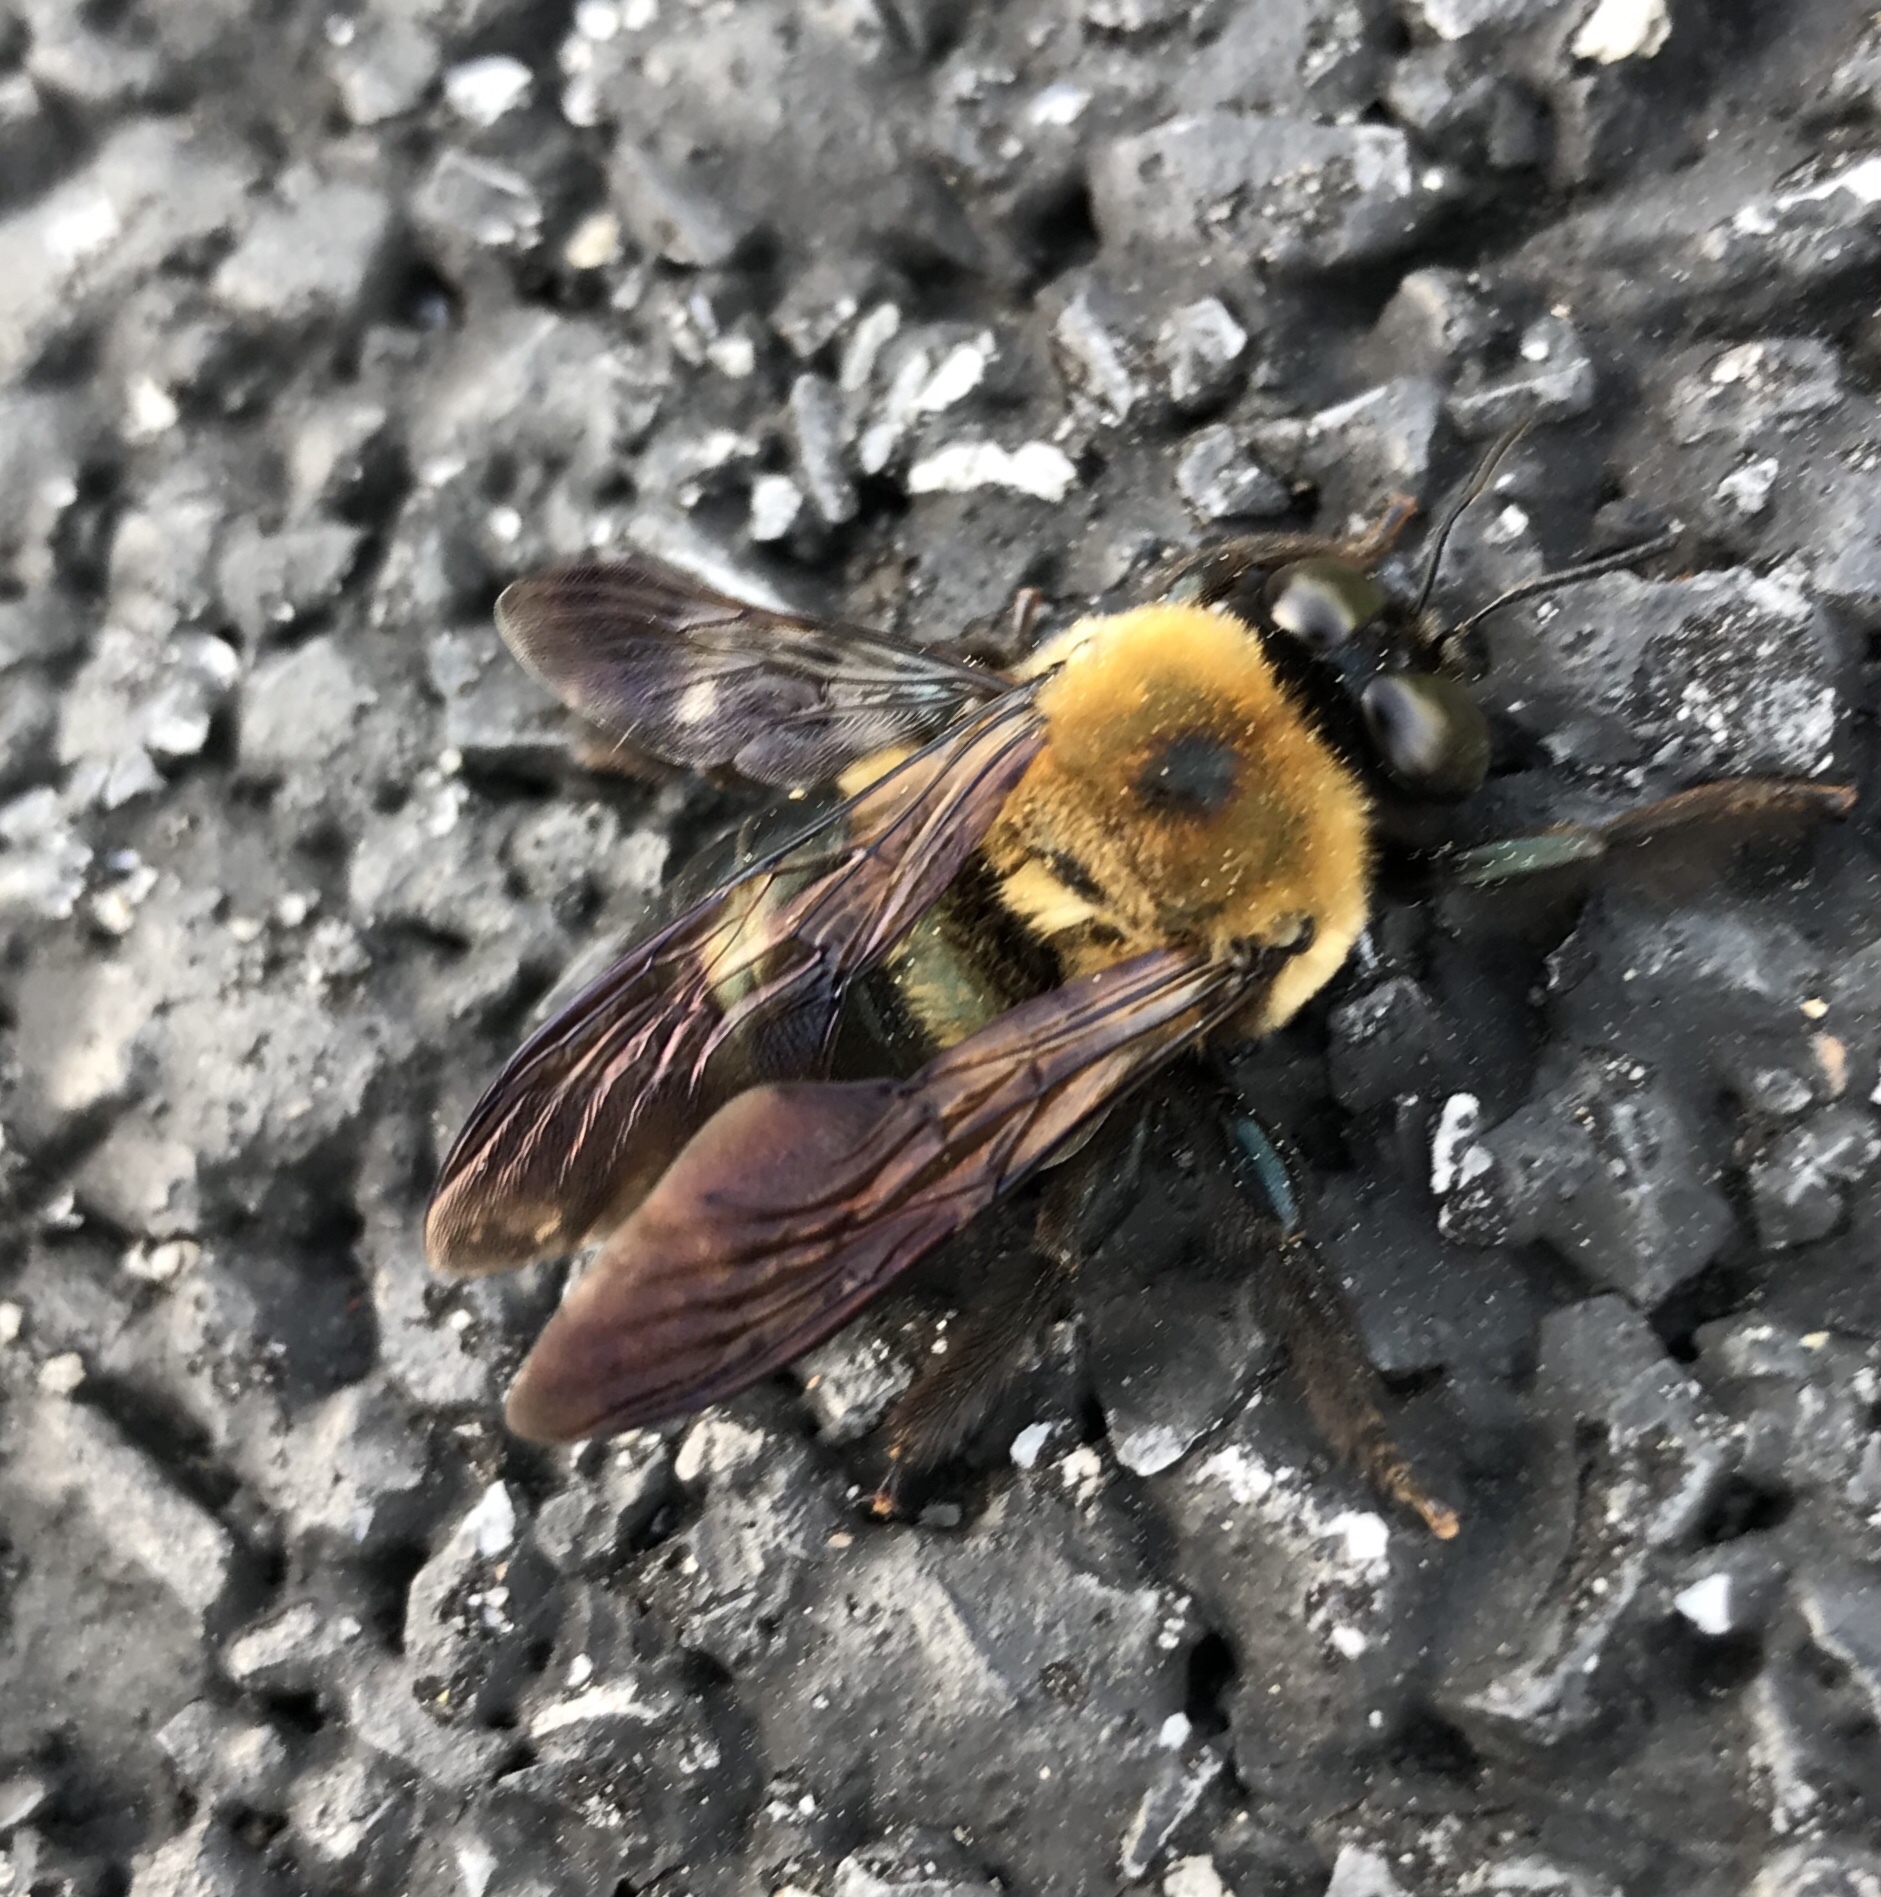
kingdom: Animalia
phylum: Arthropoda
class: Insecta
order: Hymenoptera
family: Apidae
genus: Xylocopa
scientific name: Xylocopa virginica
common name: Carpenter bee
